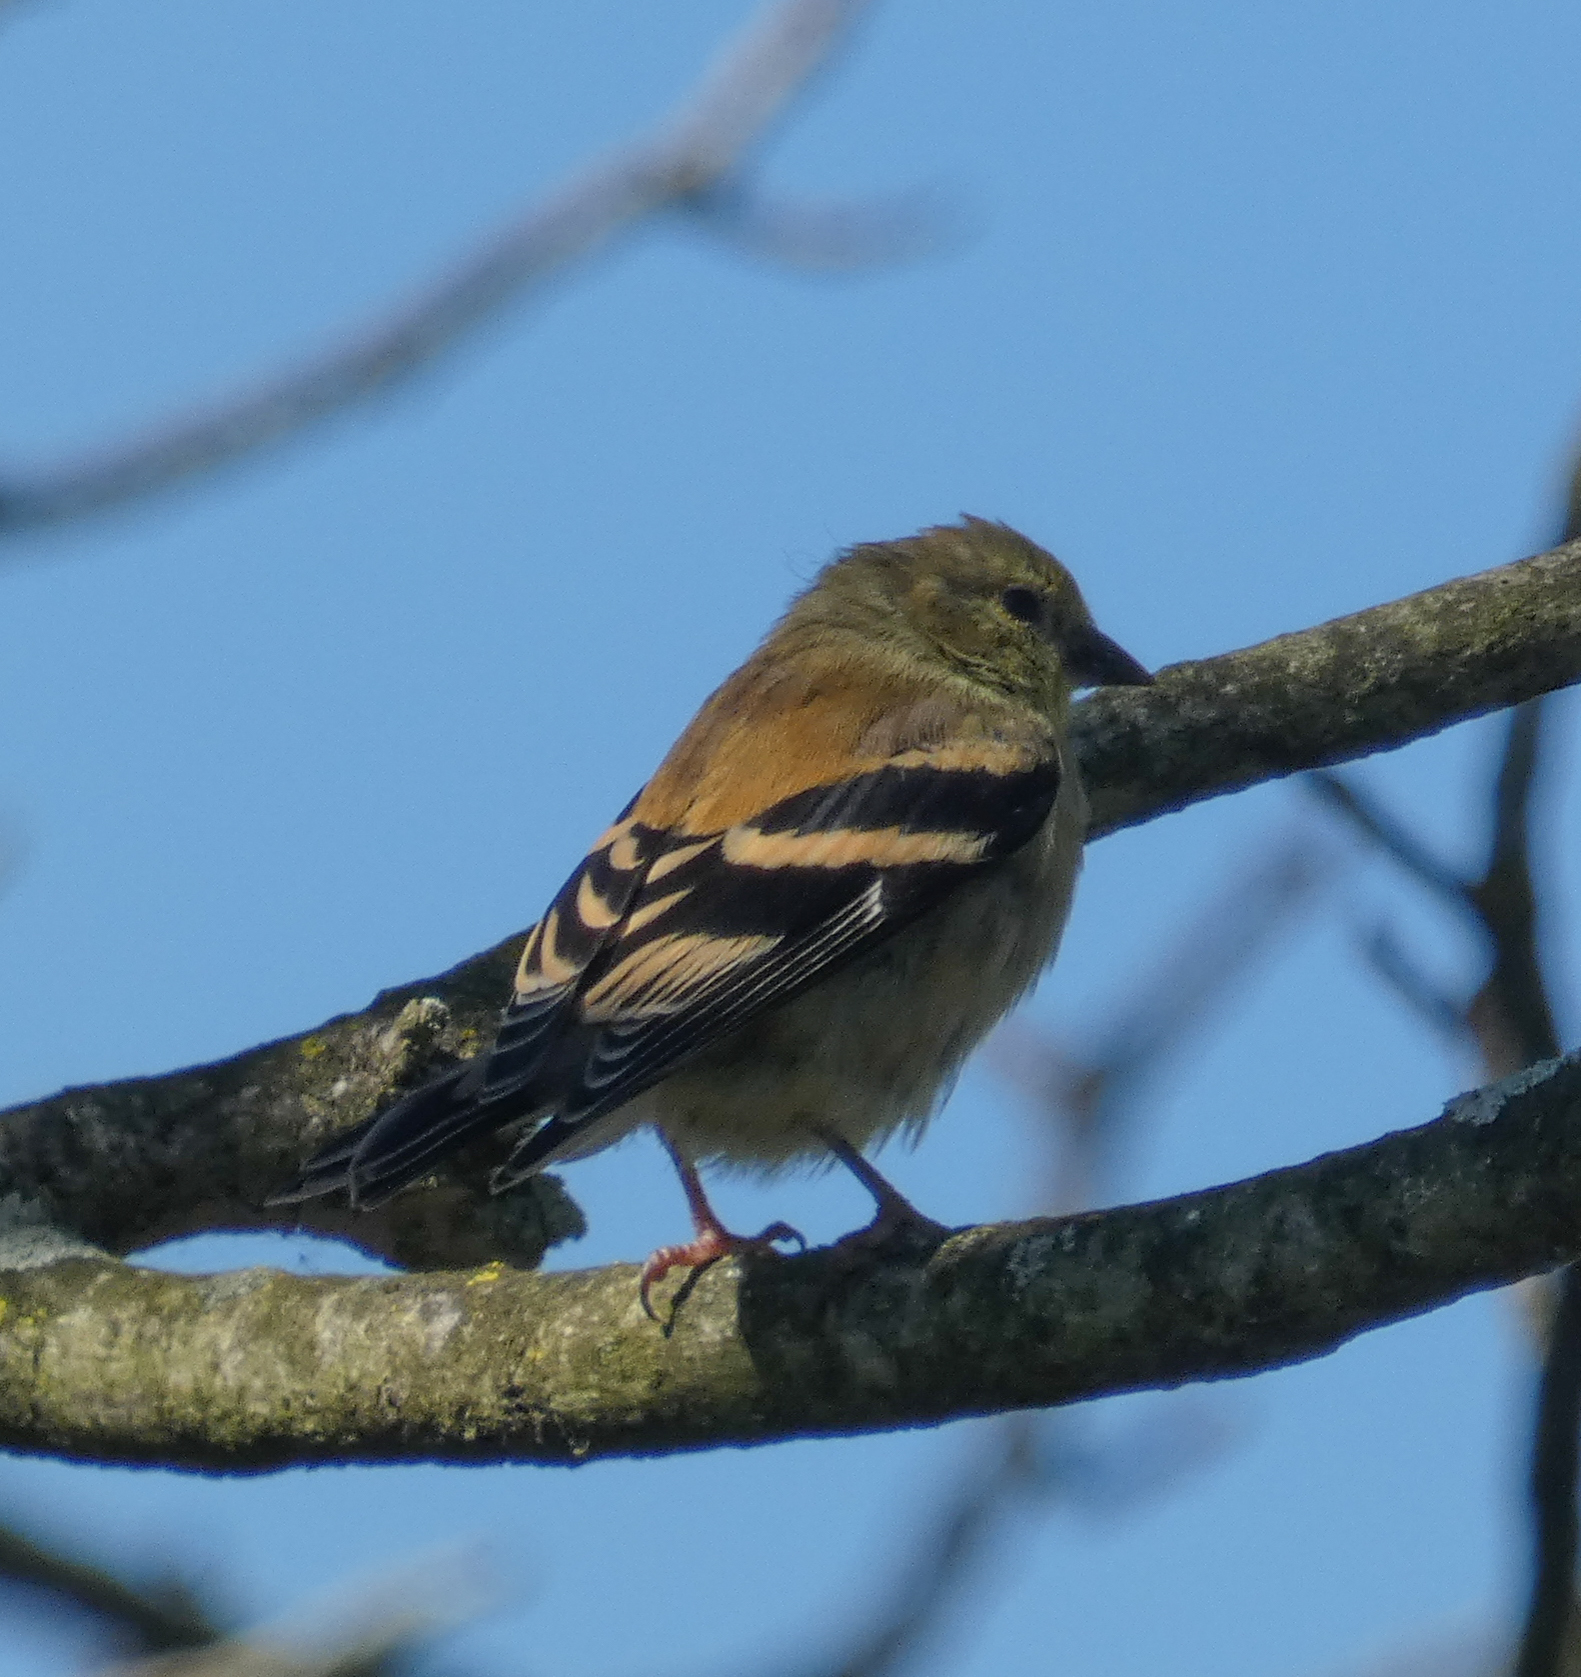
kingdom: Animalia
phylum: Chordata
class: Aves
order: Passeriformes
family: Fringillidae
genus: Spinus
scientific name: Spinus tristis
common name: American goldfinch
